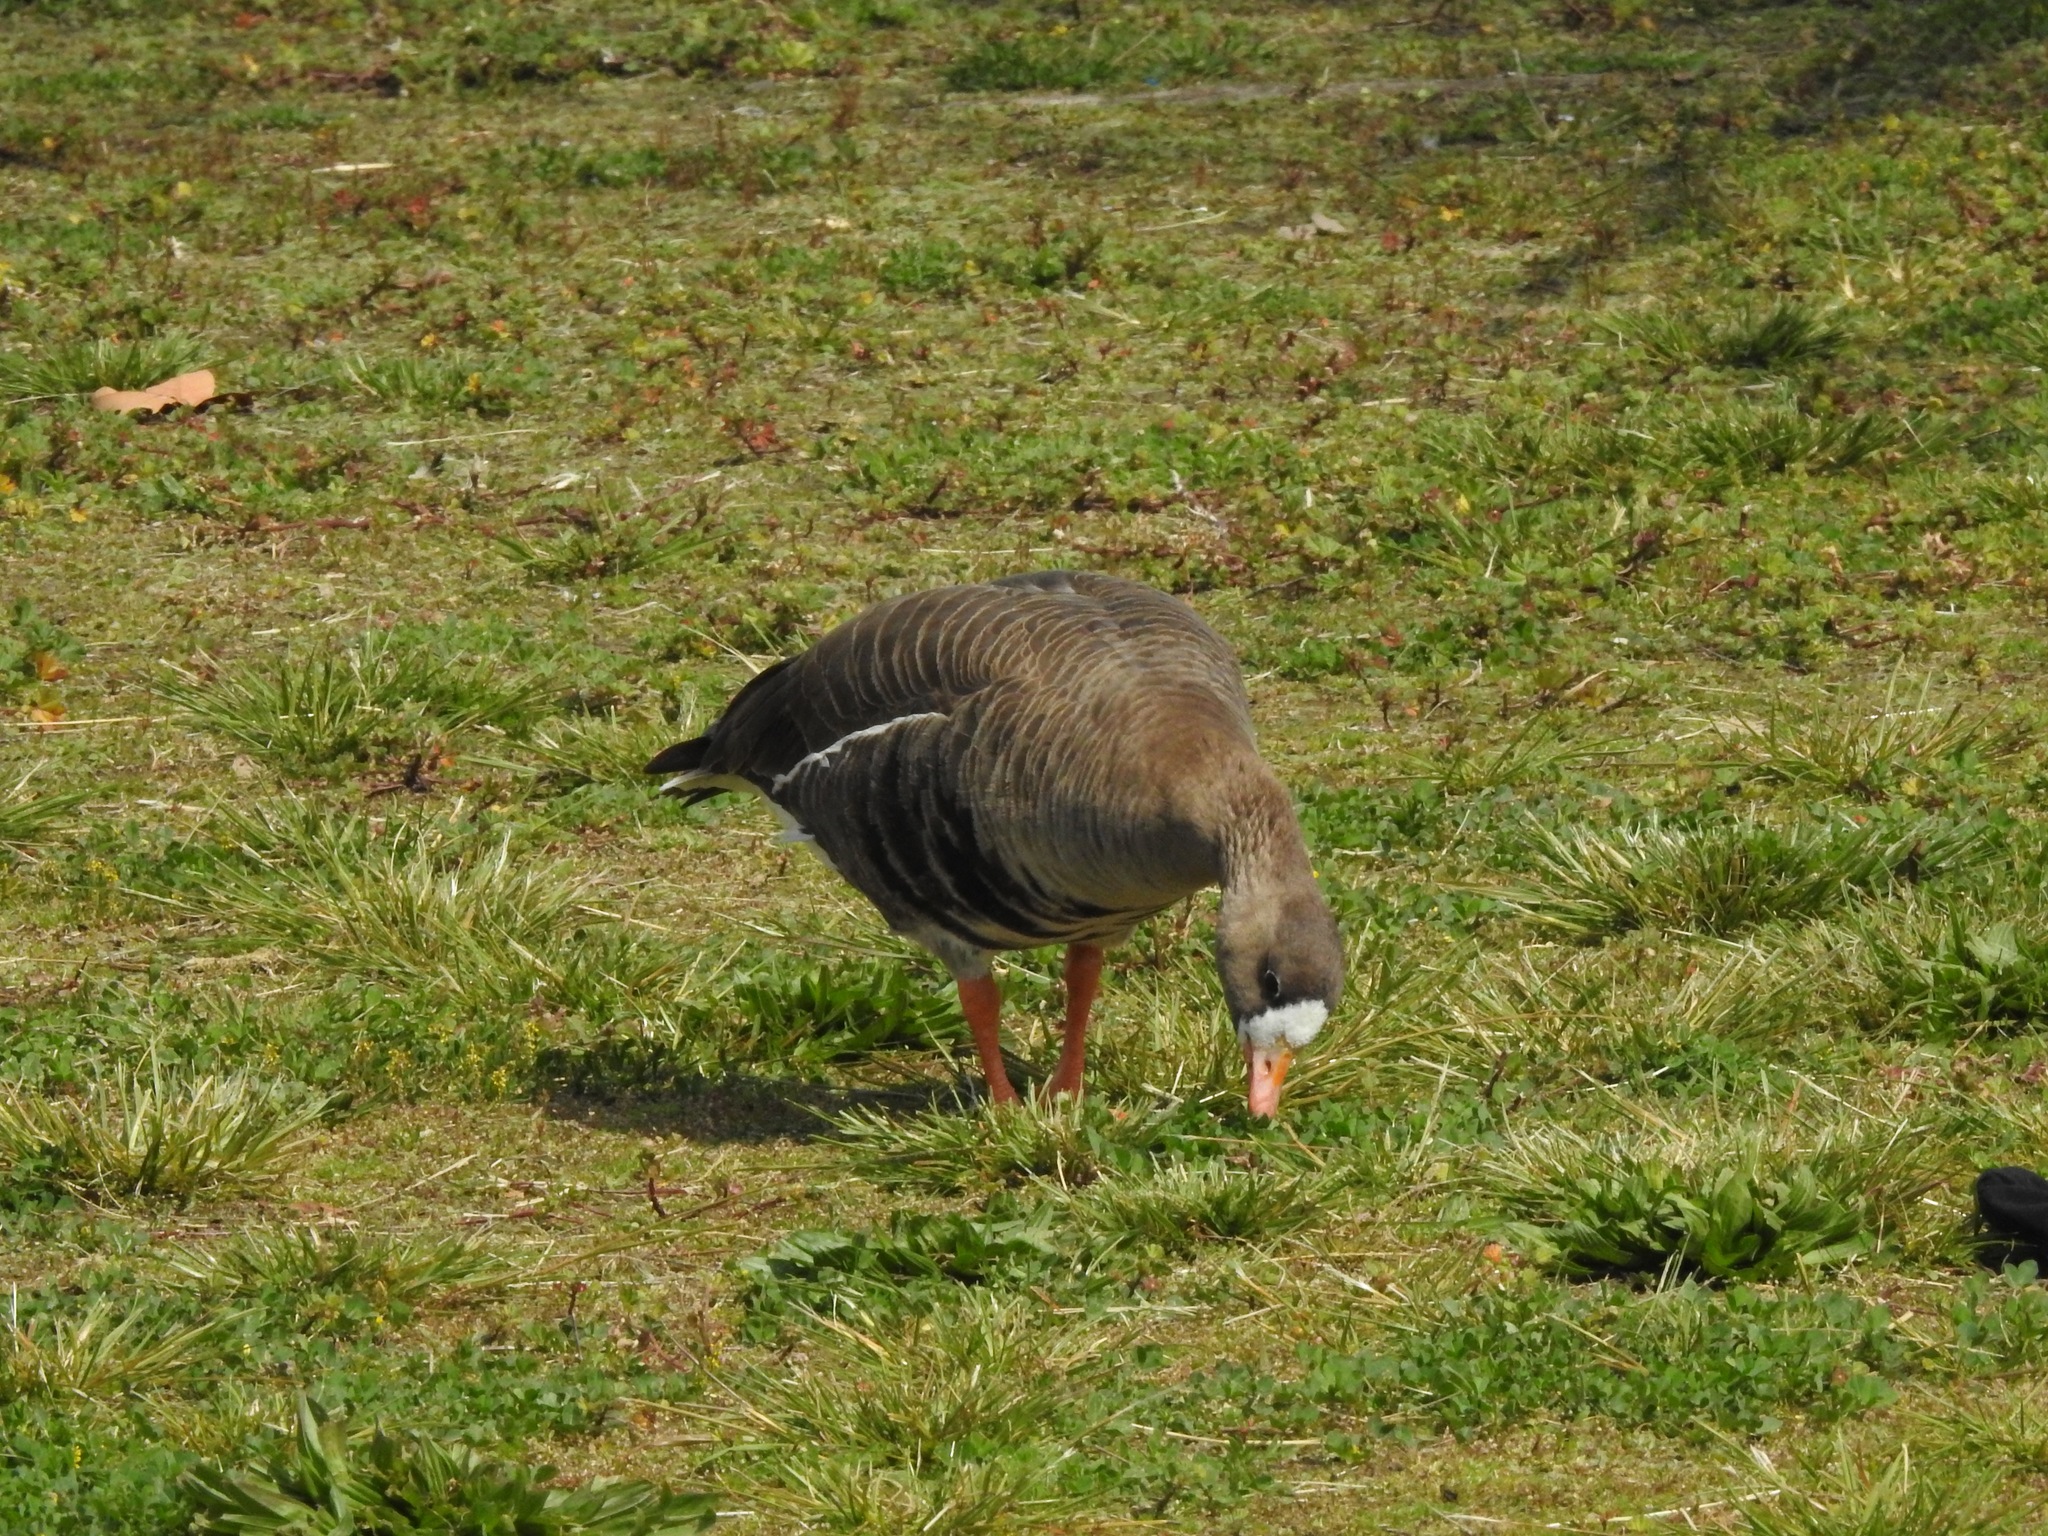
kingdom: Animalia
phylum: Chordata
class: Aves
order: Anseriformes
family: Anatidae
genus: Anser
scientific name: Anser albifrons
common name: Greater white-fronted goose
